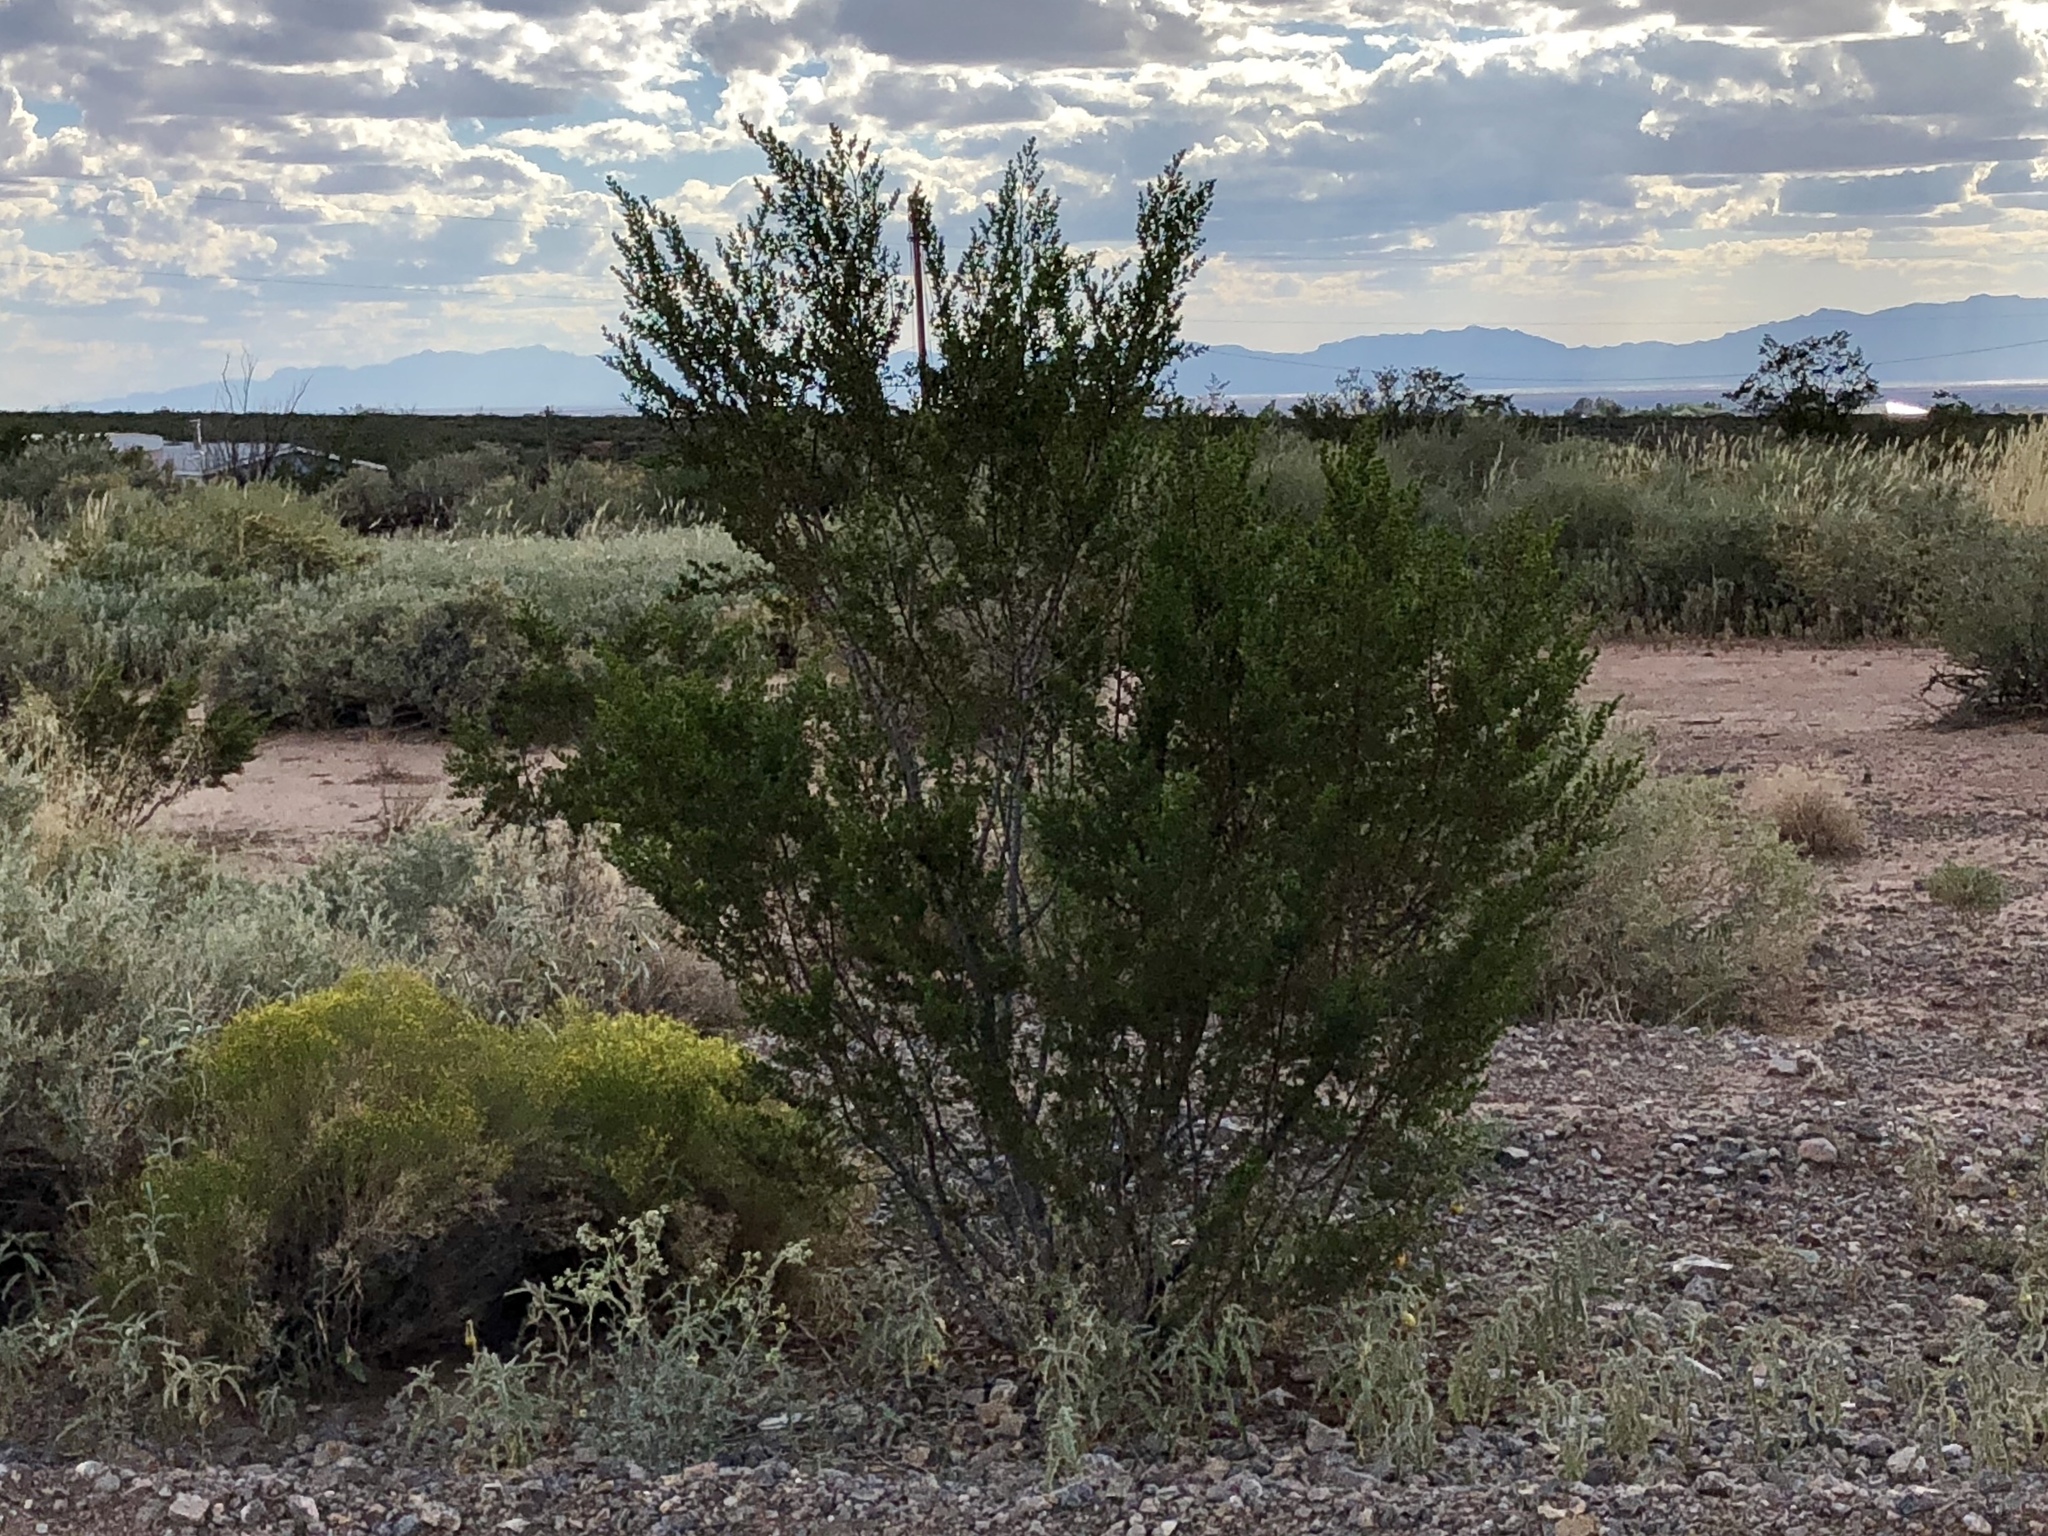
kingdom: Plantae
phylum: Tracheophyta
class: Magnoliopsida
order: Zygophyllales
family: Zygophyllaceae
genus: Larrea
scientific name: Larrea tridentata
